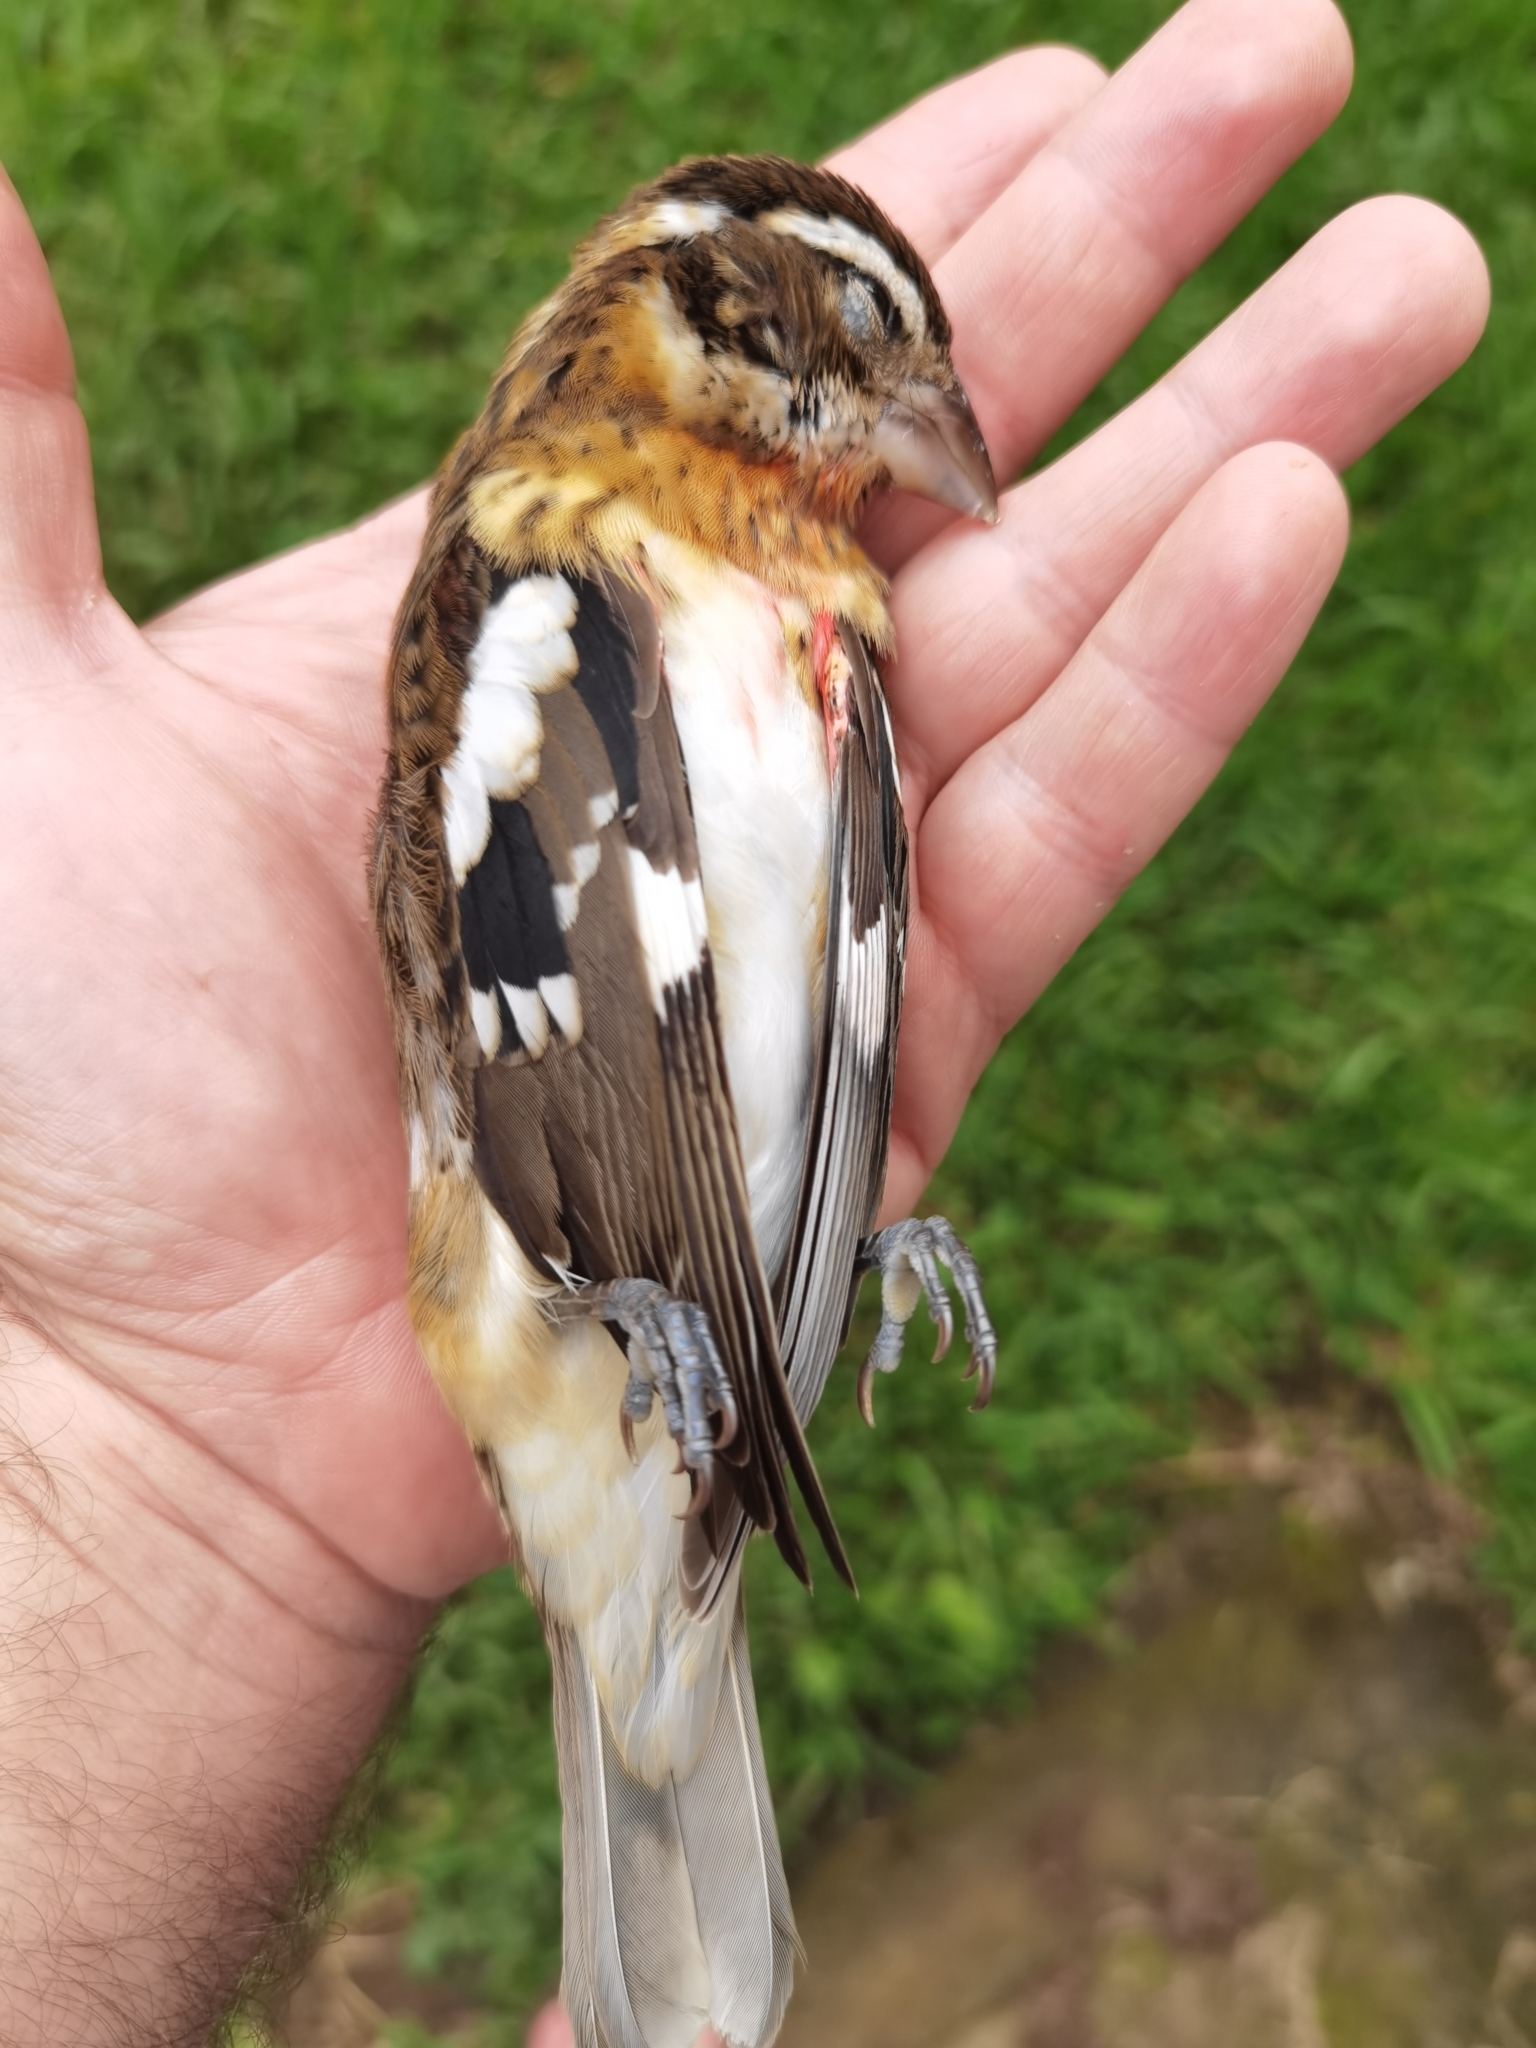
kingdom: Animalia
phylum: Chordata
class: Aves
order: Passeriformes
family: Cardinalidae
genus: Pheucticus
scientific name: Pheucticus ludovicianus
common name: Rose-breasted grosbeak
